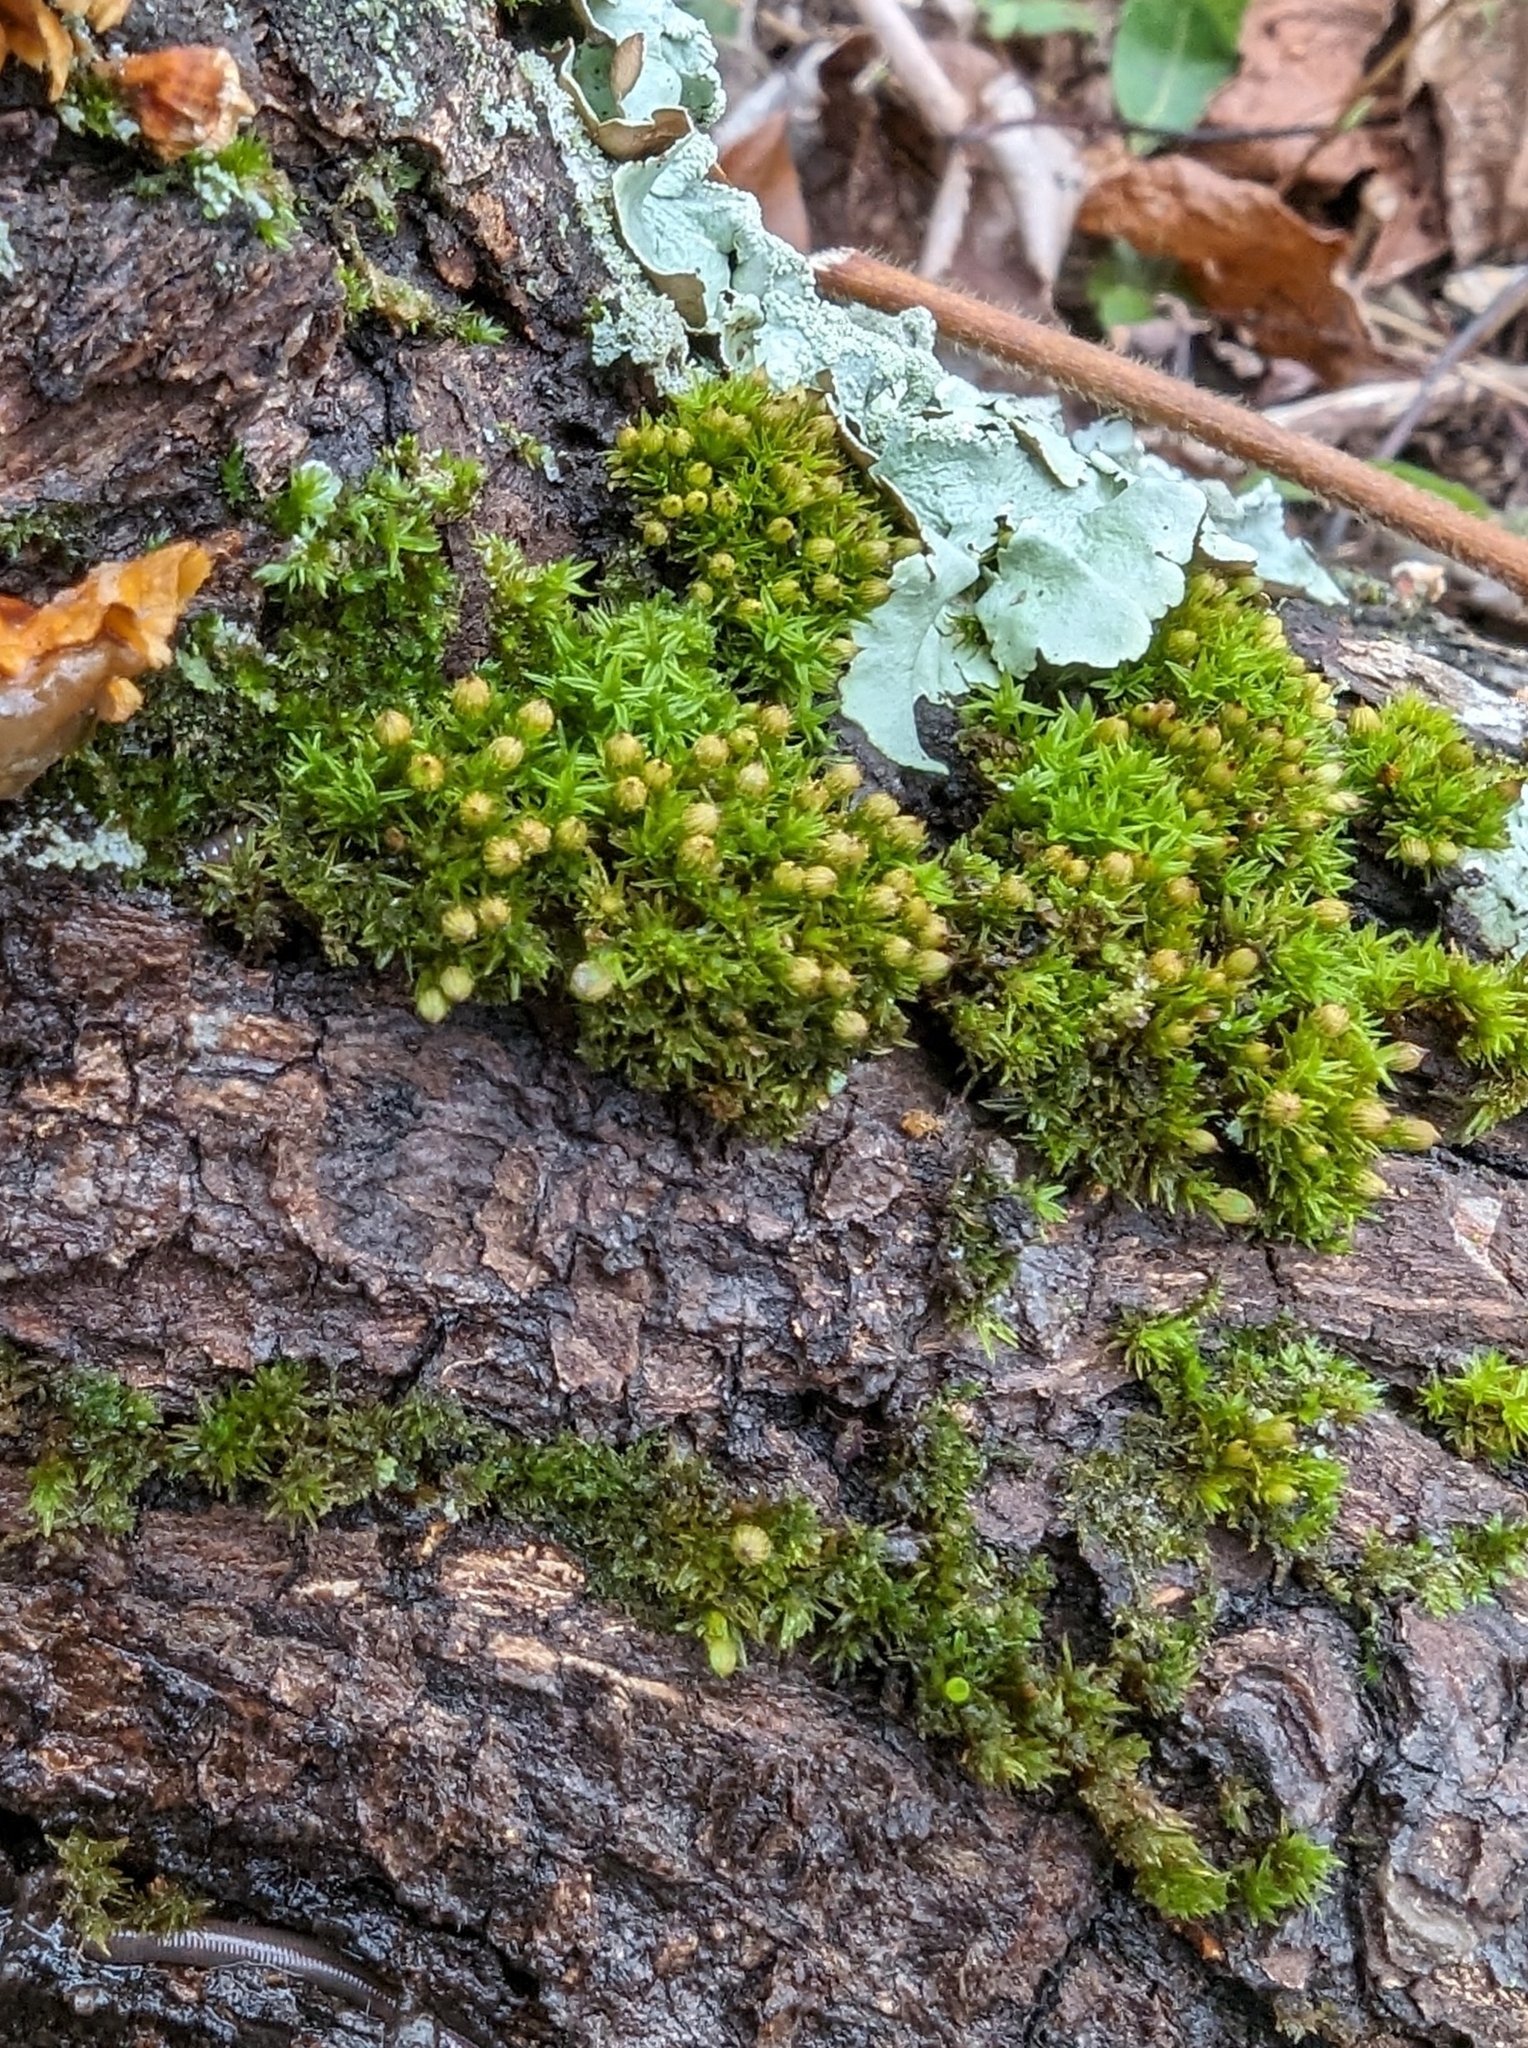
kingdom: Plantae
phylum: Bryophyta
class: Bryopsida
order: Orthotrichales
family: Orthotrichaceae
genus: Orthotrichum
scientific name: Orthotrichum stellatum
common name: Starlike bristle moss
